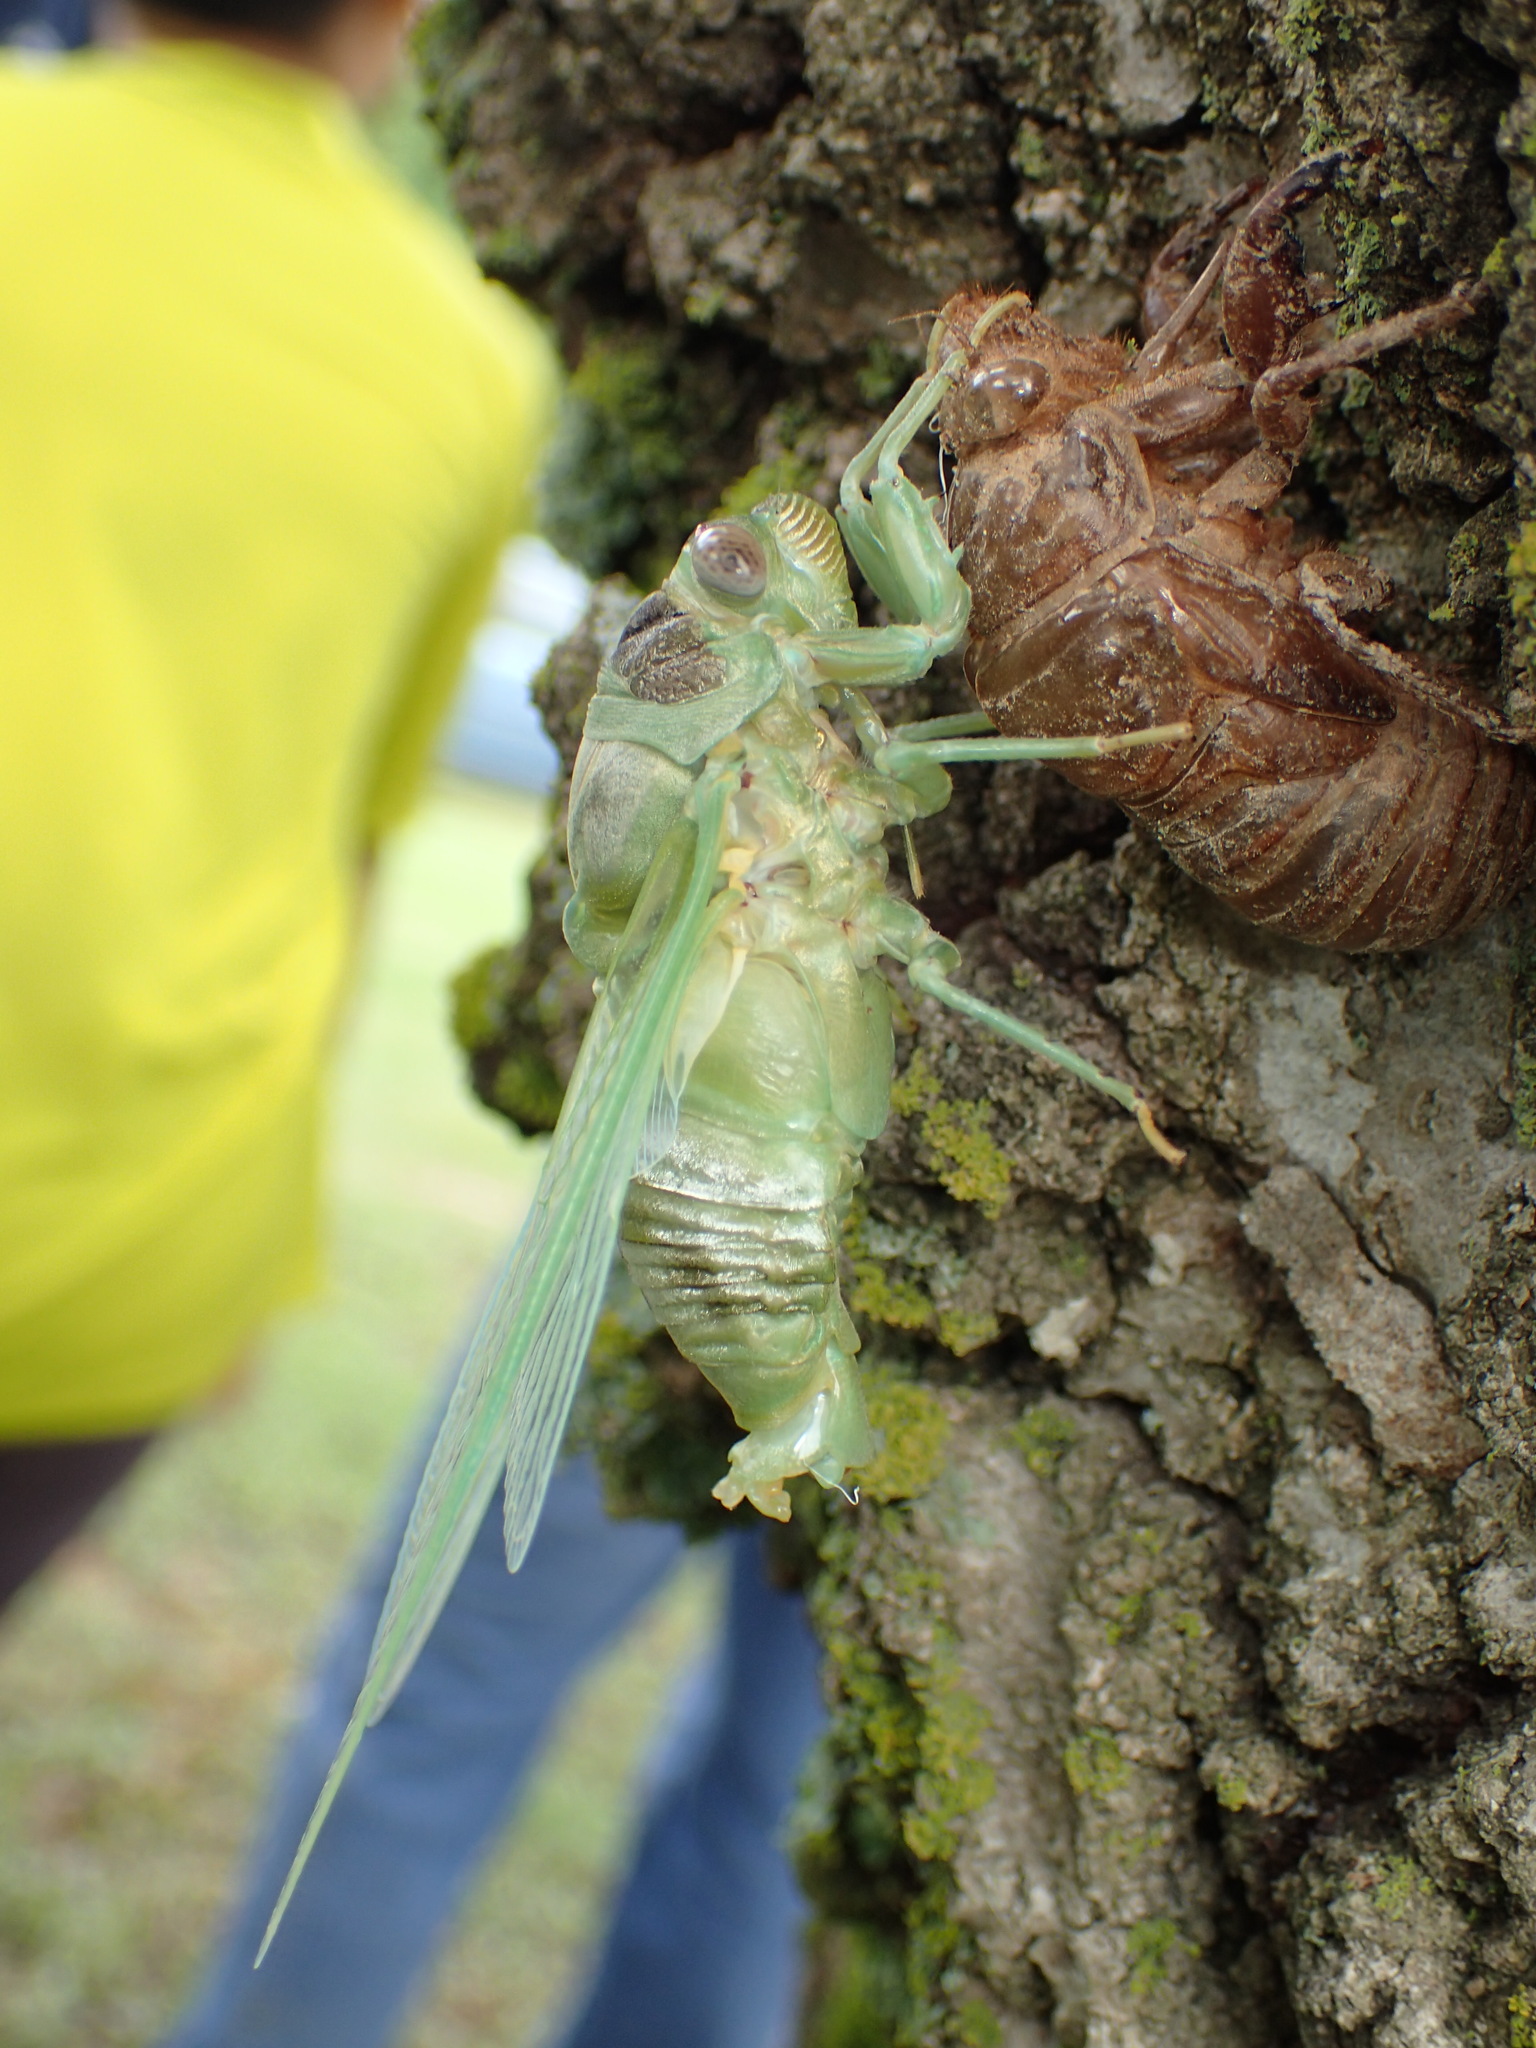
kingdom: Animalia
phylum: Arthropoda
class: Insecta
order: Hemiptera
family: Cicadidae
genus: Diceroprocta
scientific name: Diceroprocta grossa
